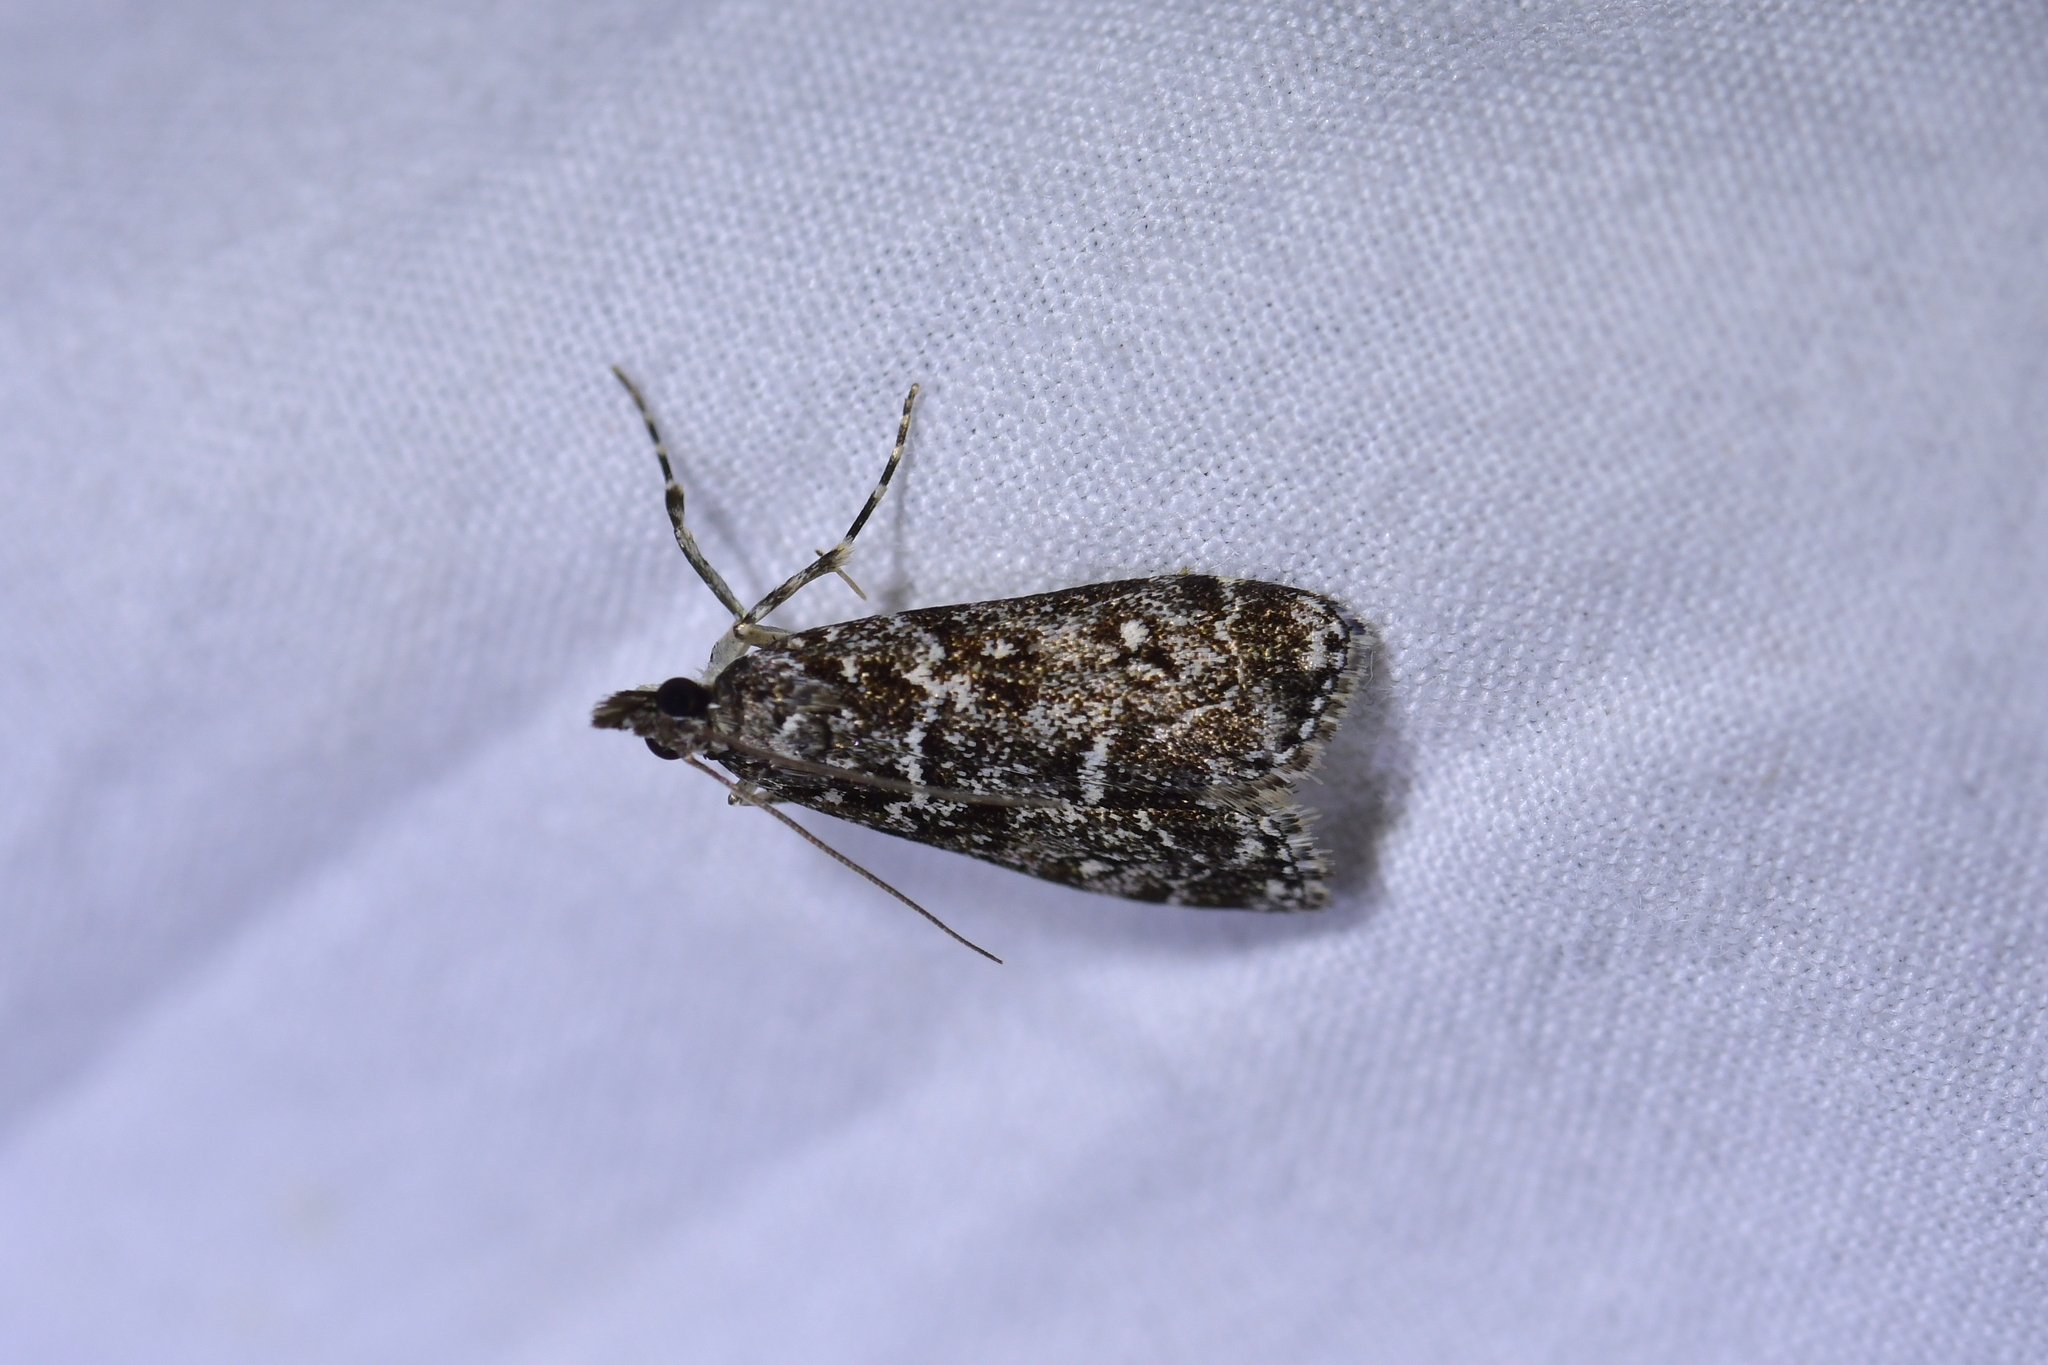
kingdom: Animalia
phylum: Arthropoda
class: Insecta
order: Lepidoptera
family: Crambidae
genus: Eudonia
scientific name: Eudonia philerga
